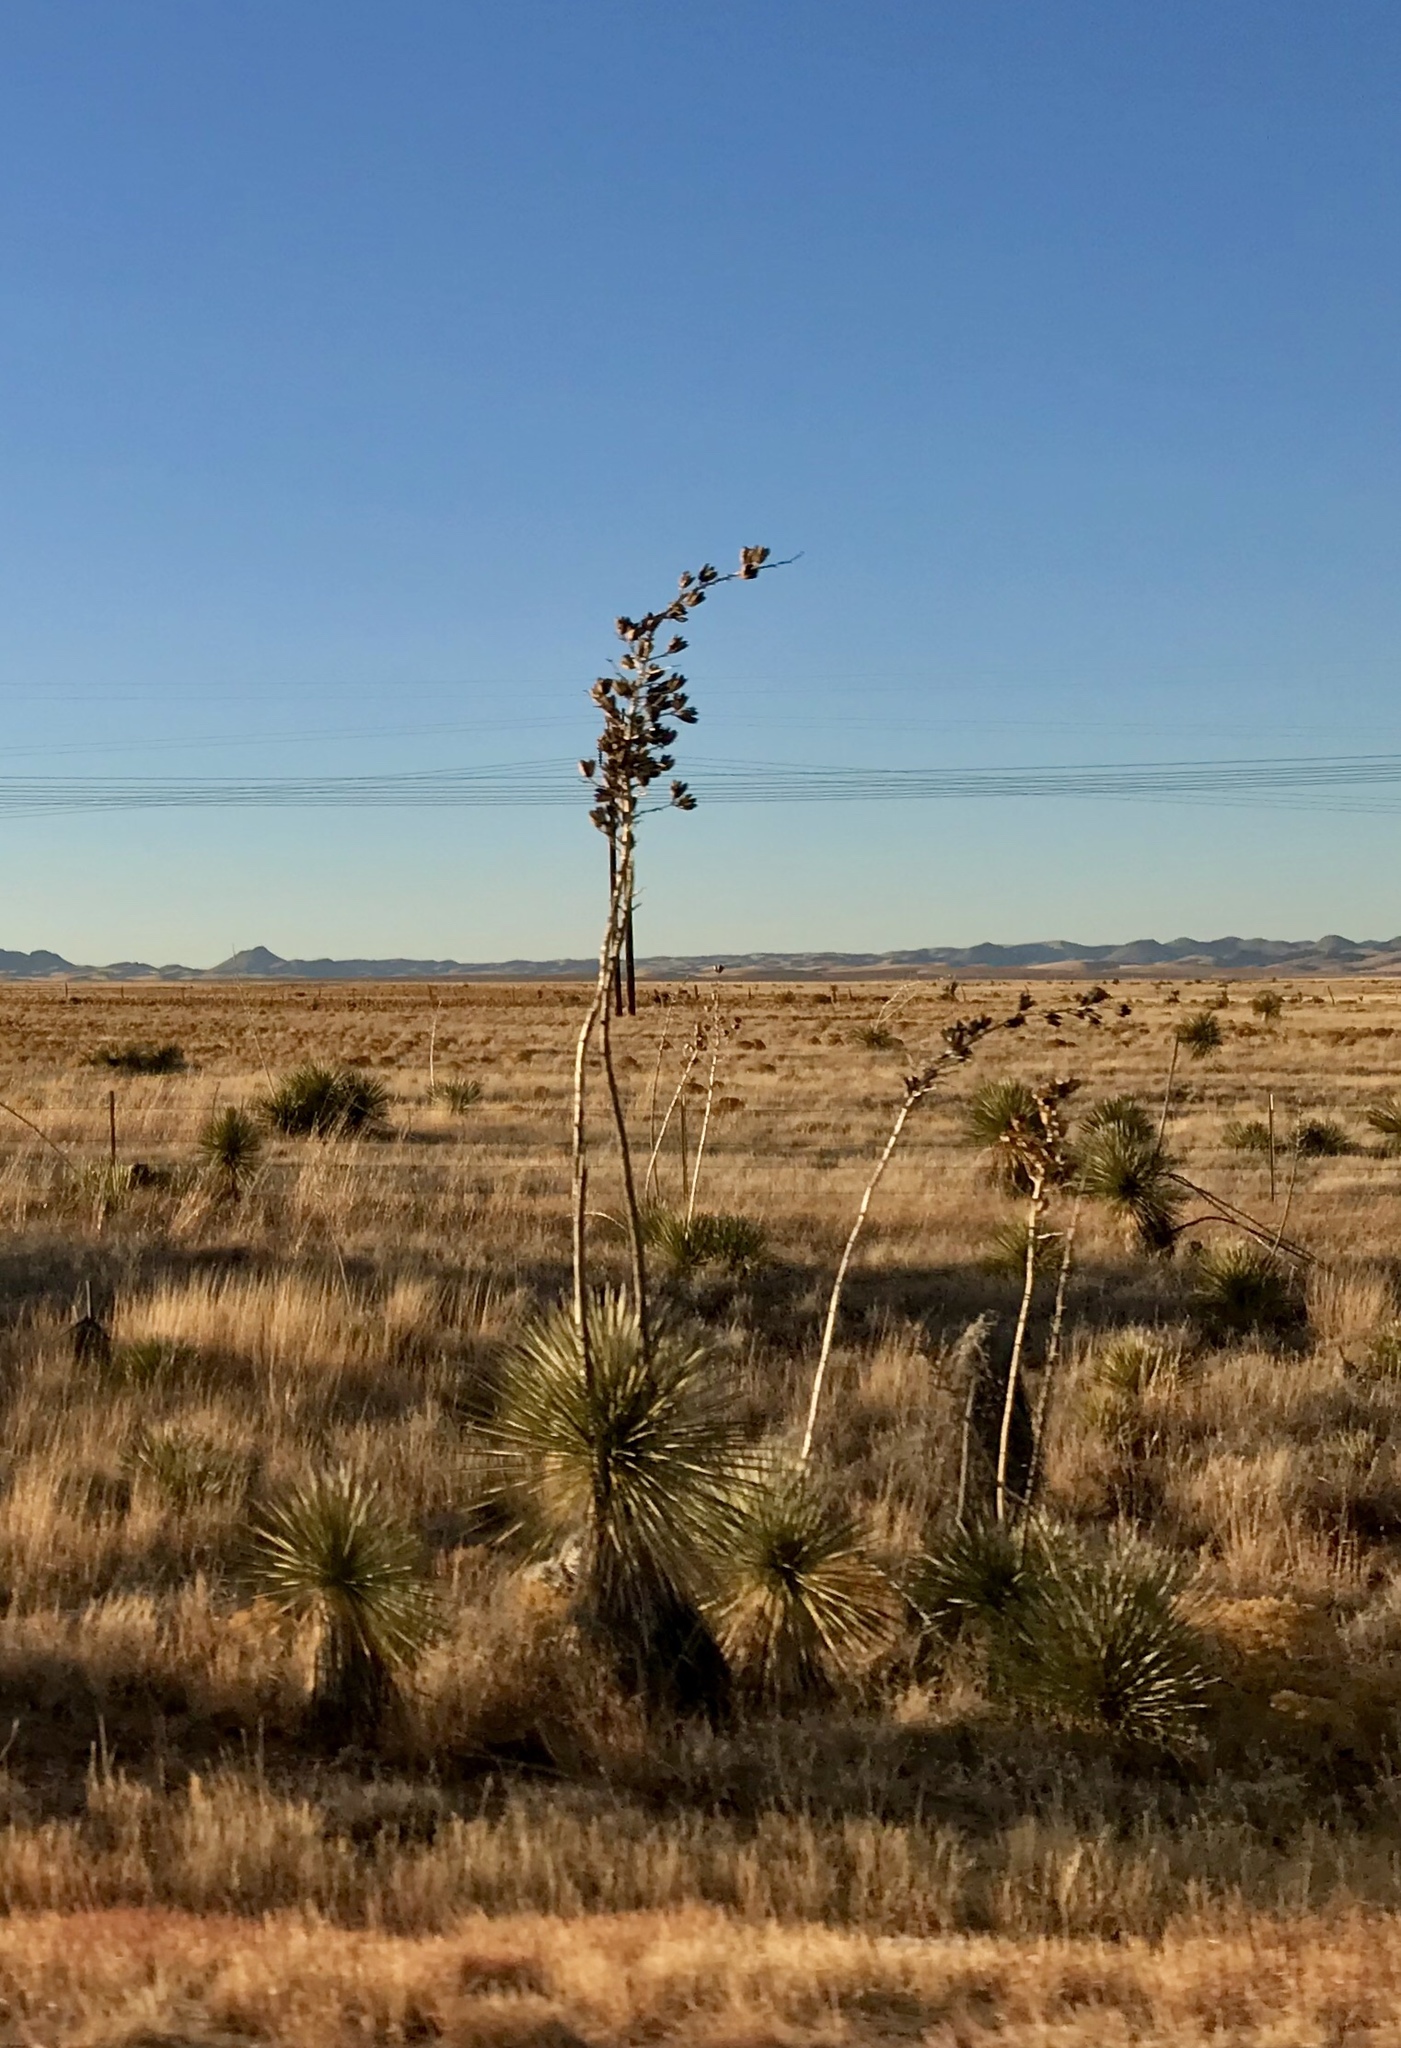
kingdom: Plantae
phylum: Tracheophyta
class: Liliopsida
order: Asparagales
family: Asparagaceae
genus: Yucca
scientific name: Yucca elata
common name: Palmella
